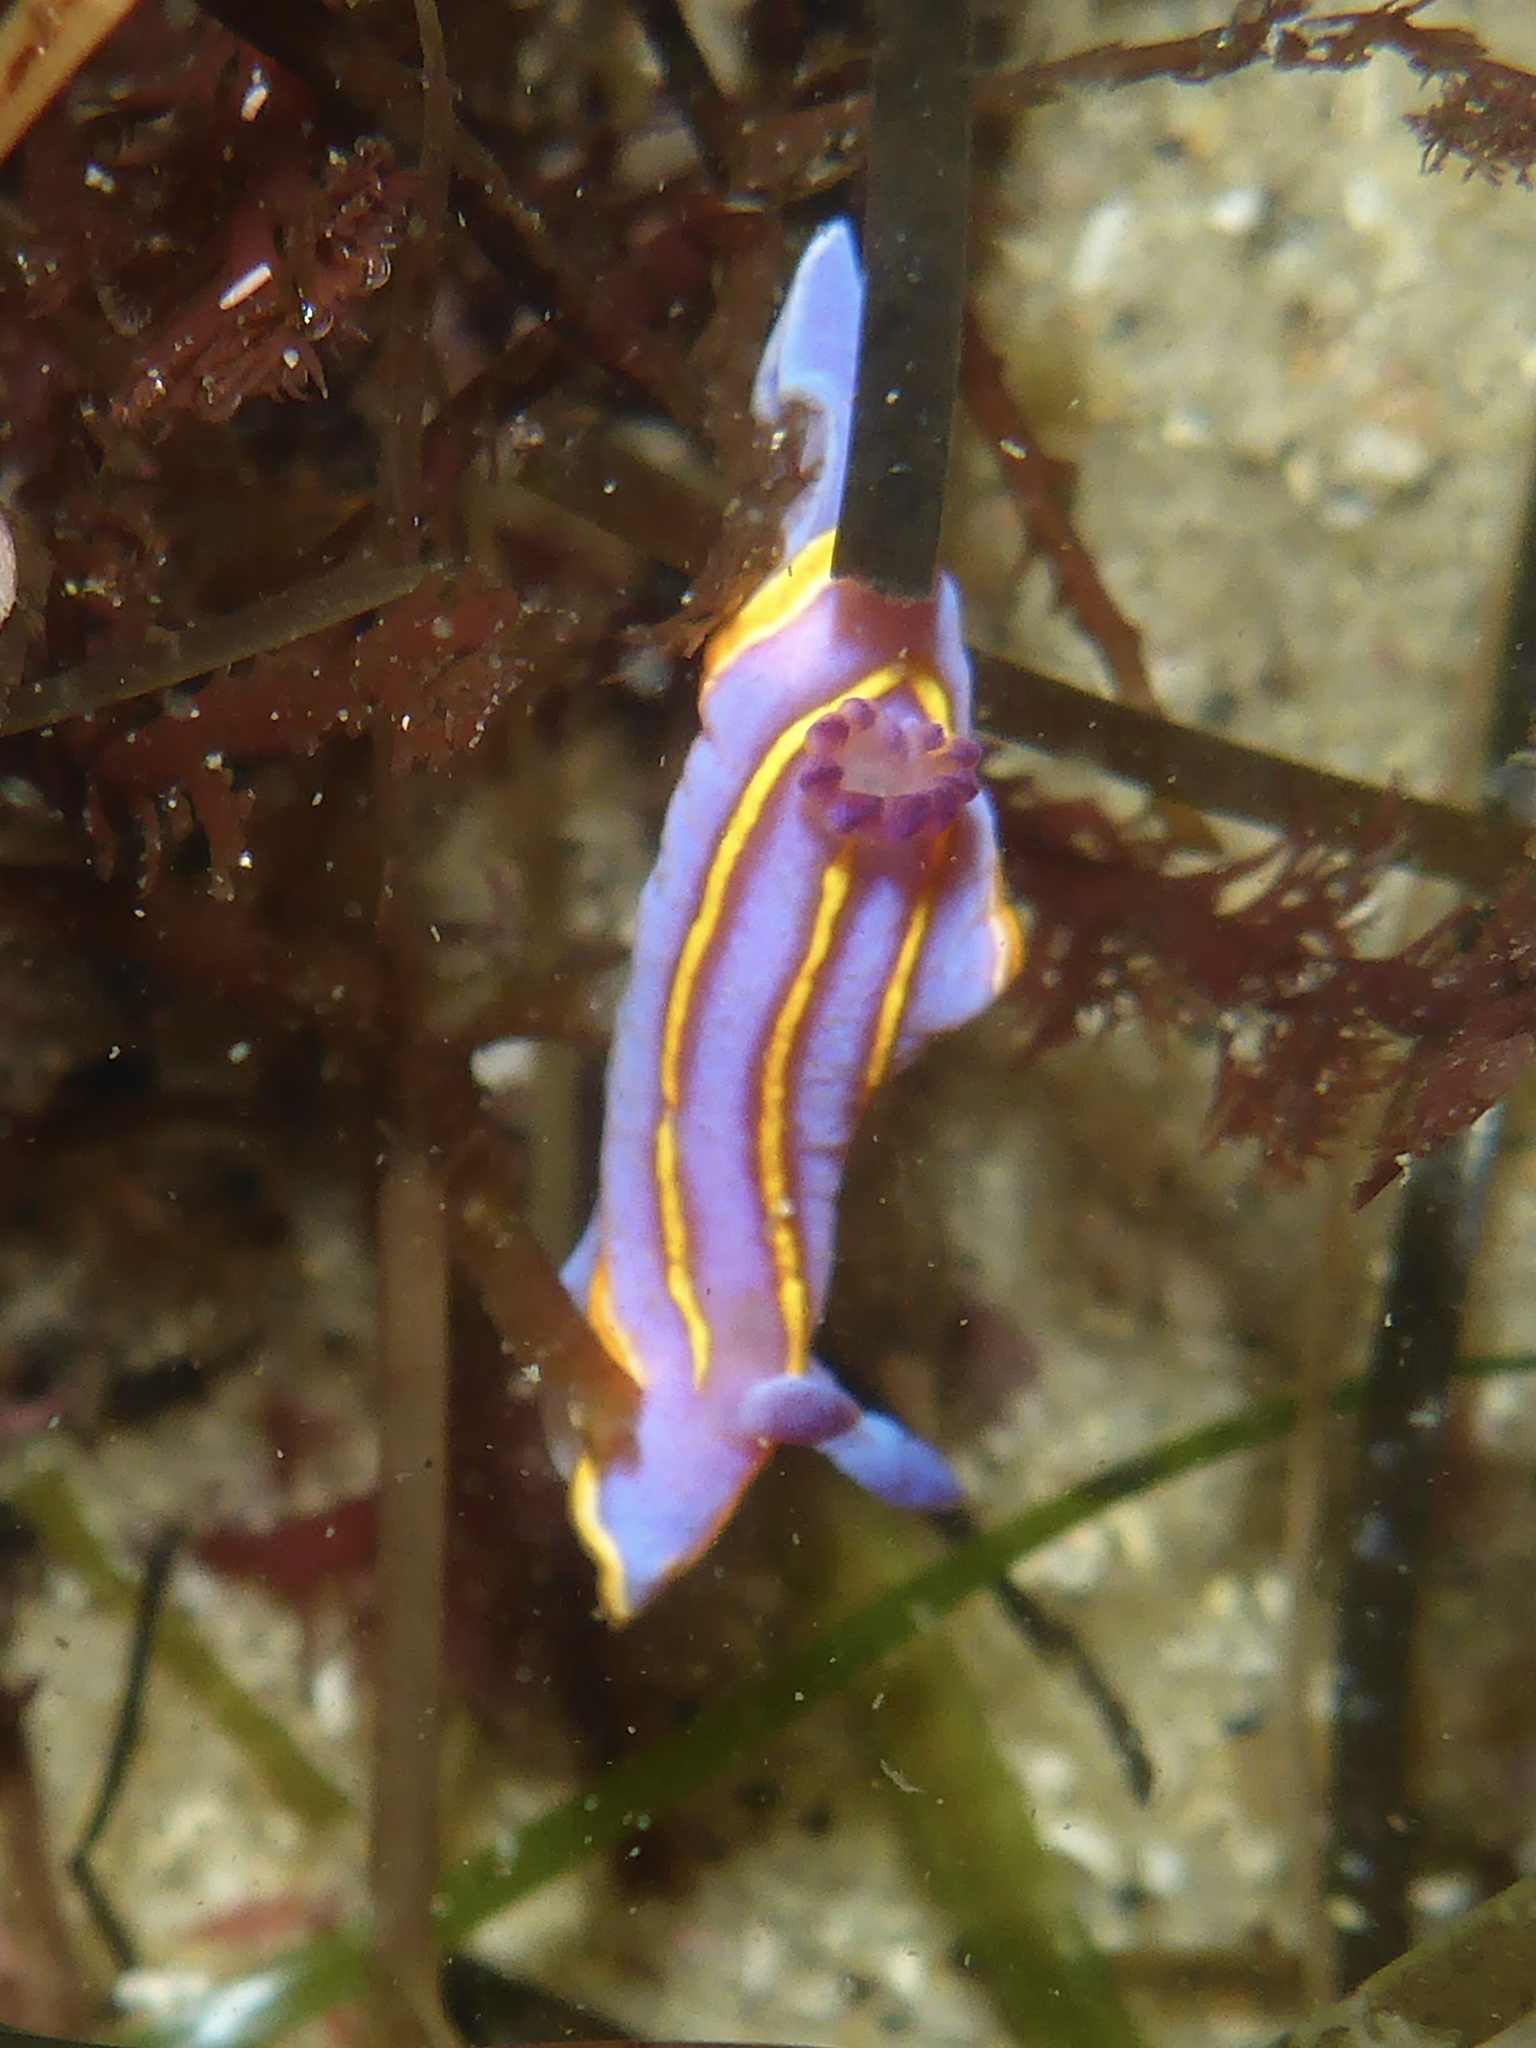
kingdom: Animalia
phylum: Mollusca
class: Gastropoda
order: Nudibranchia
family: Chromodorididae
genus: Felimida
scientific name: Felimida macfarlandi
